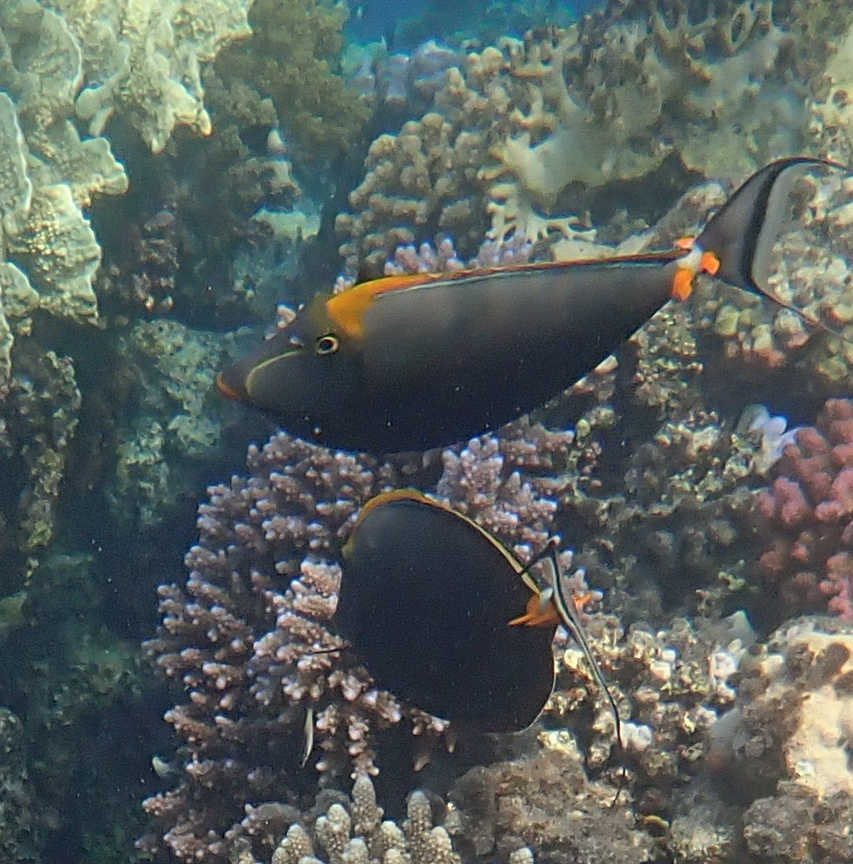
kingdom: Animalia
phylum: Chordata
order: Perciformes
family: Acanthuridae
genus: Naso
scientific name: Naso elegans
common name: Orangespine unicornfish
